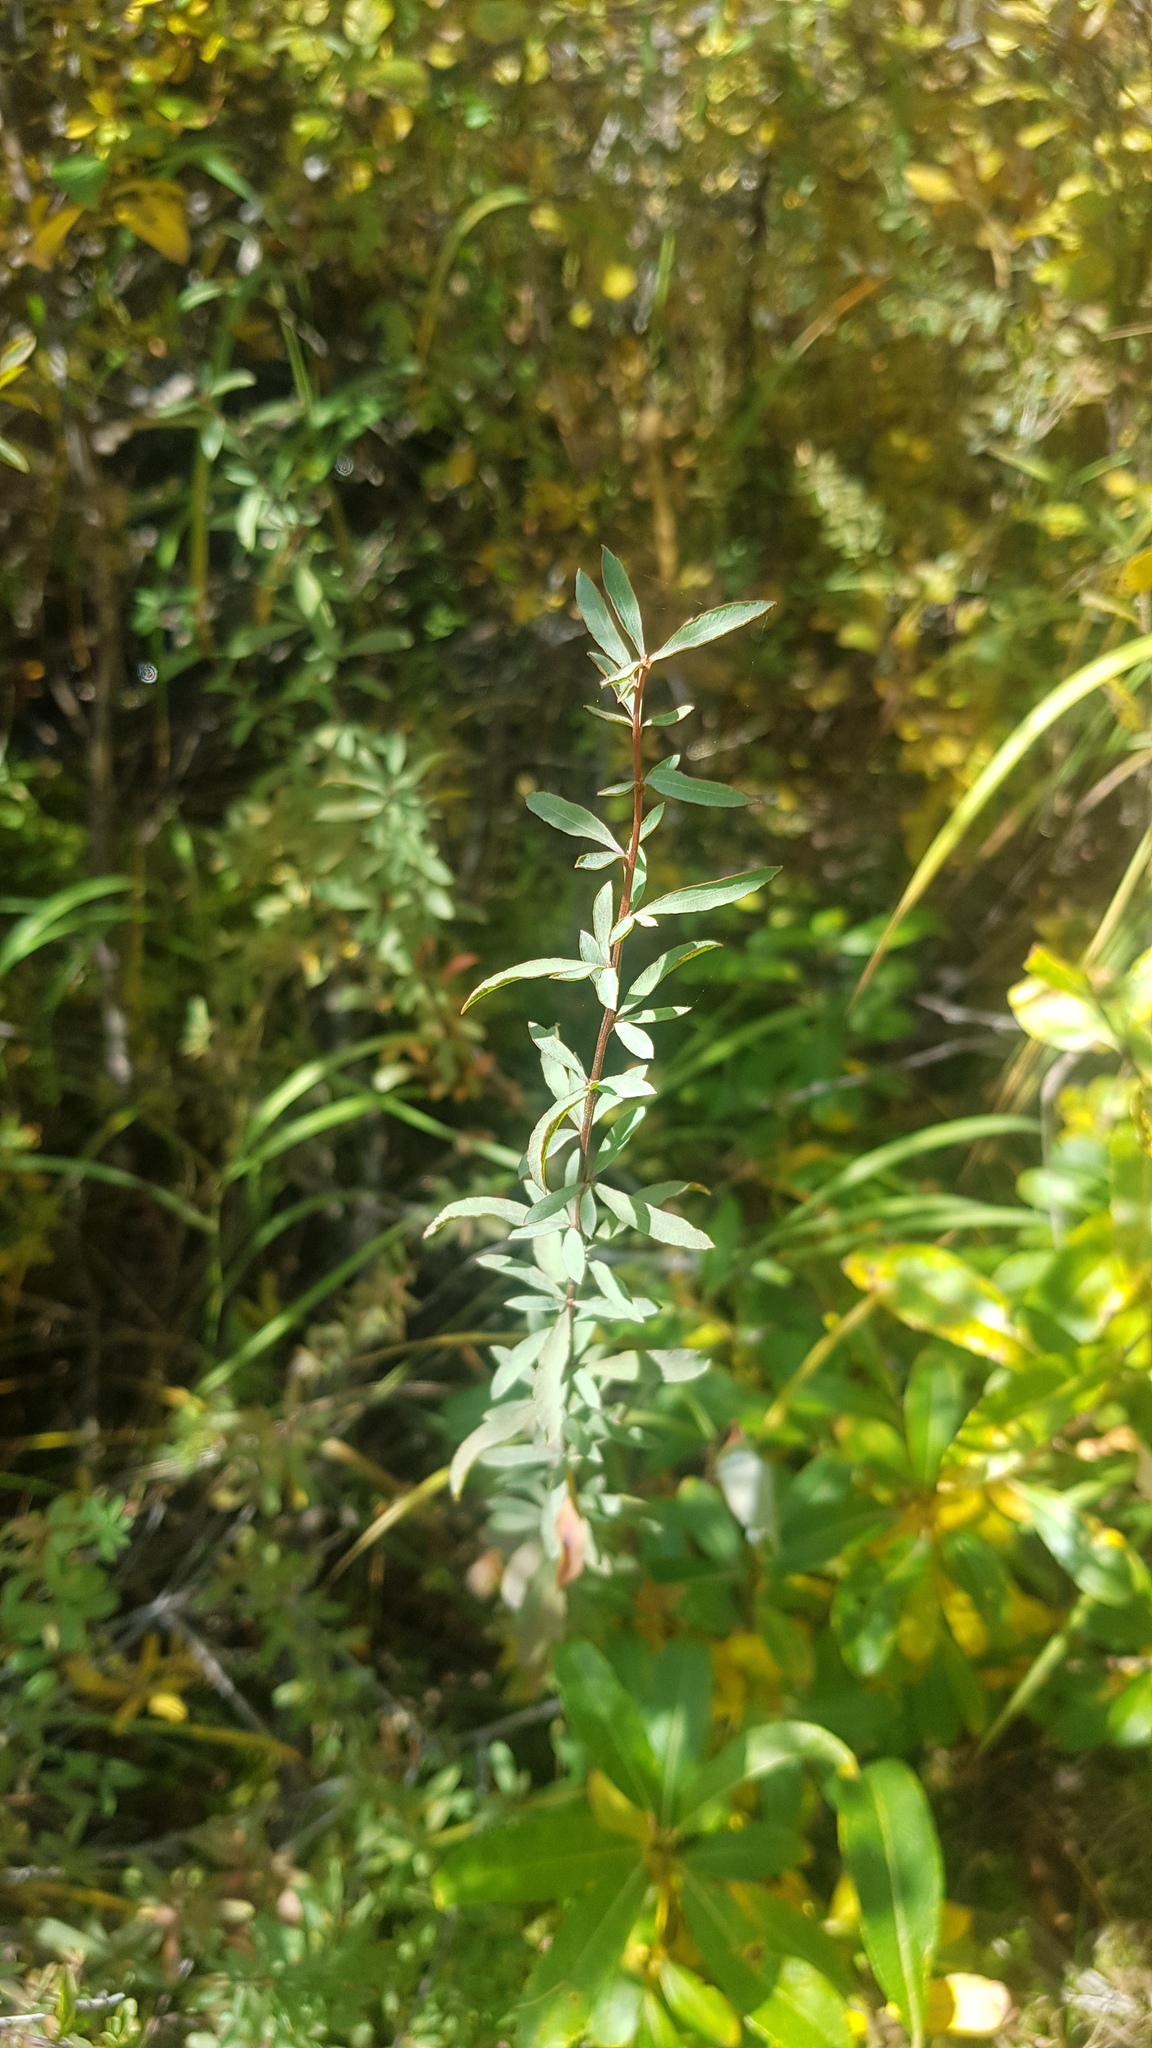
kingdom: Plantae
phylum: Tracheophyta
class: Magnoliopsida
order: Rosales
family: Rosaceae
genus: Spiraea
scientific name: Spiraea alpina
